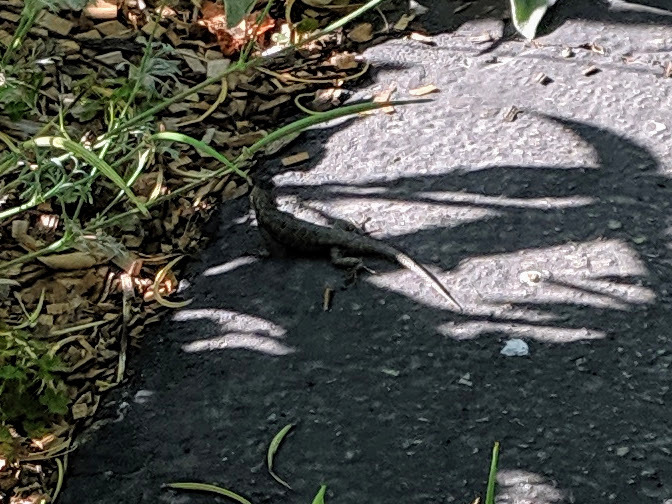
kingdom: Animalia
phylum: Chordata
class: Squamata
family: Phrynosomatidae
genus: Sceloporus
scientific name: Sceloporus occidentalis
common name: Western fence lizard
